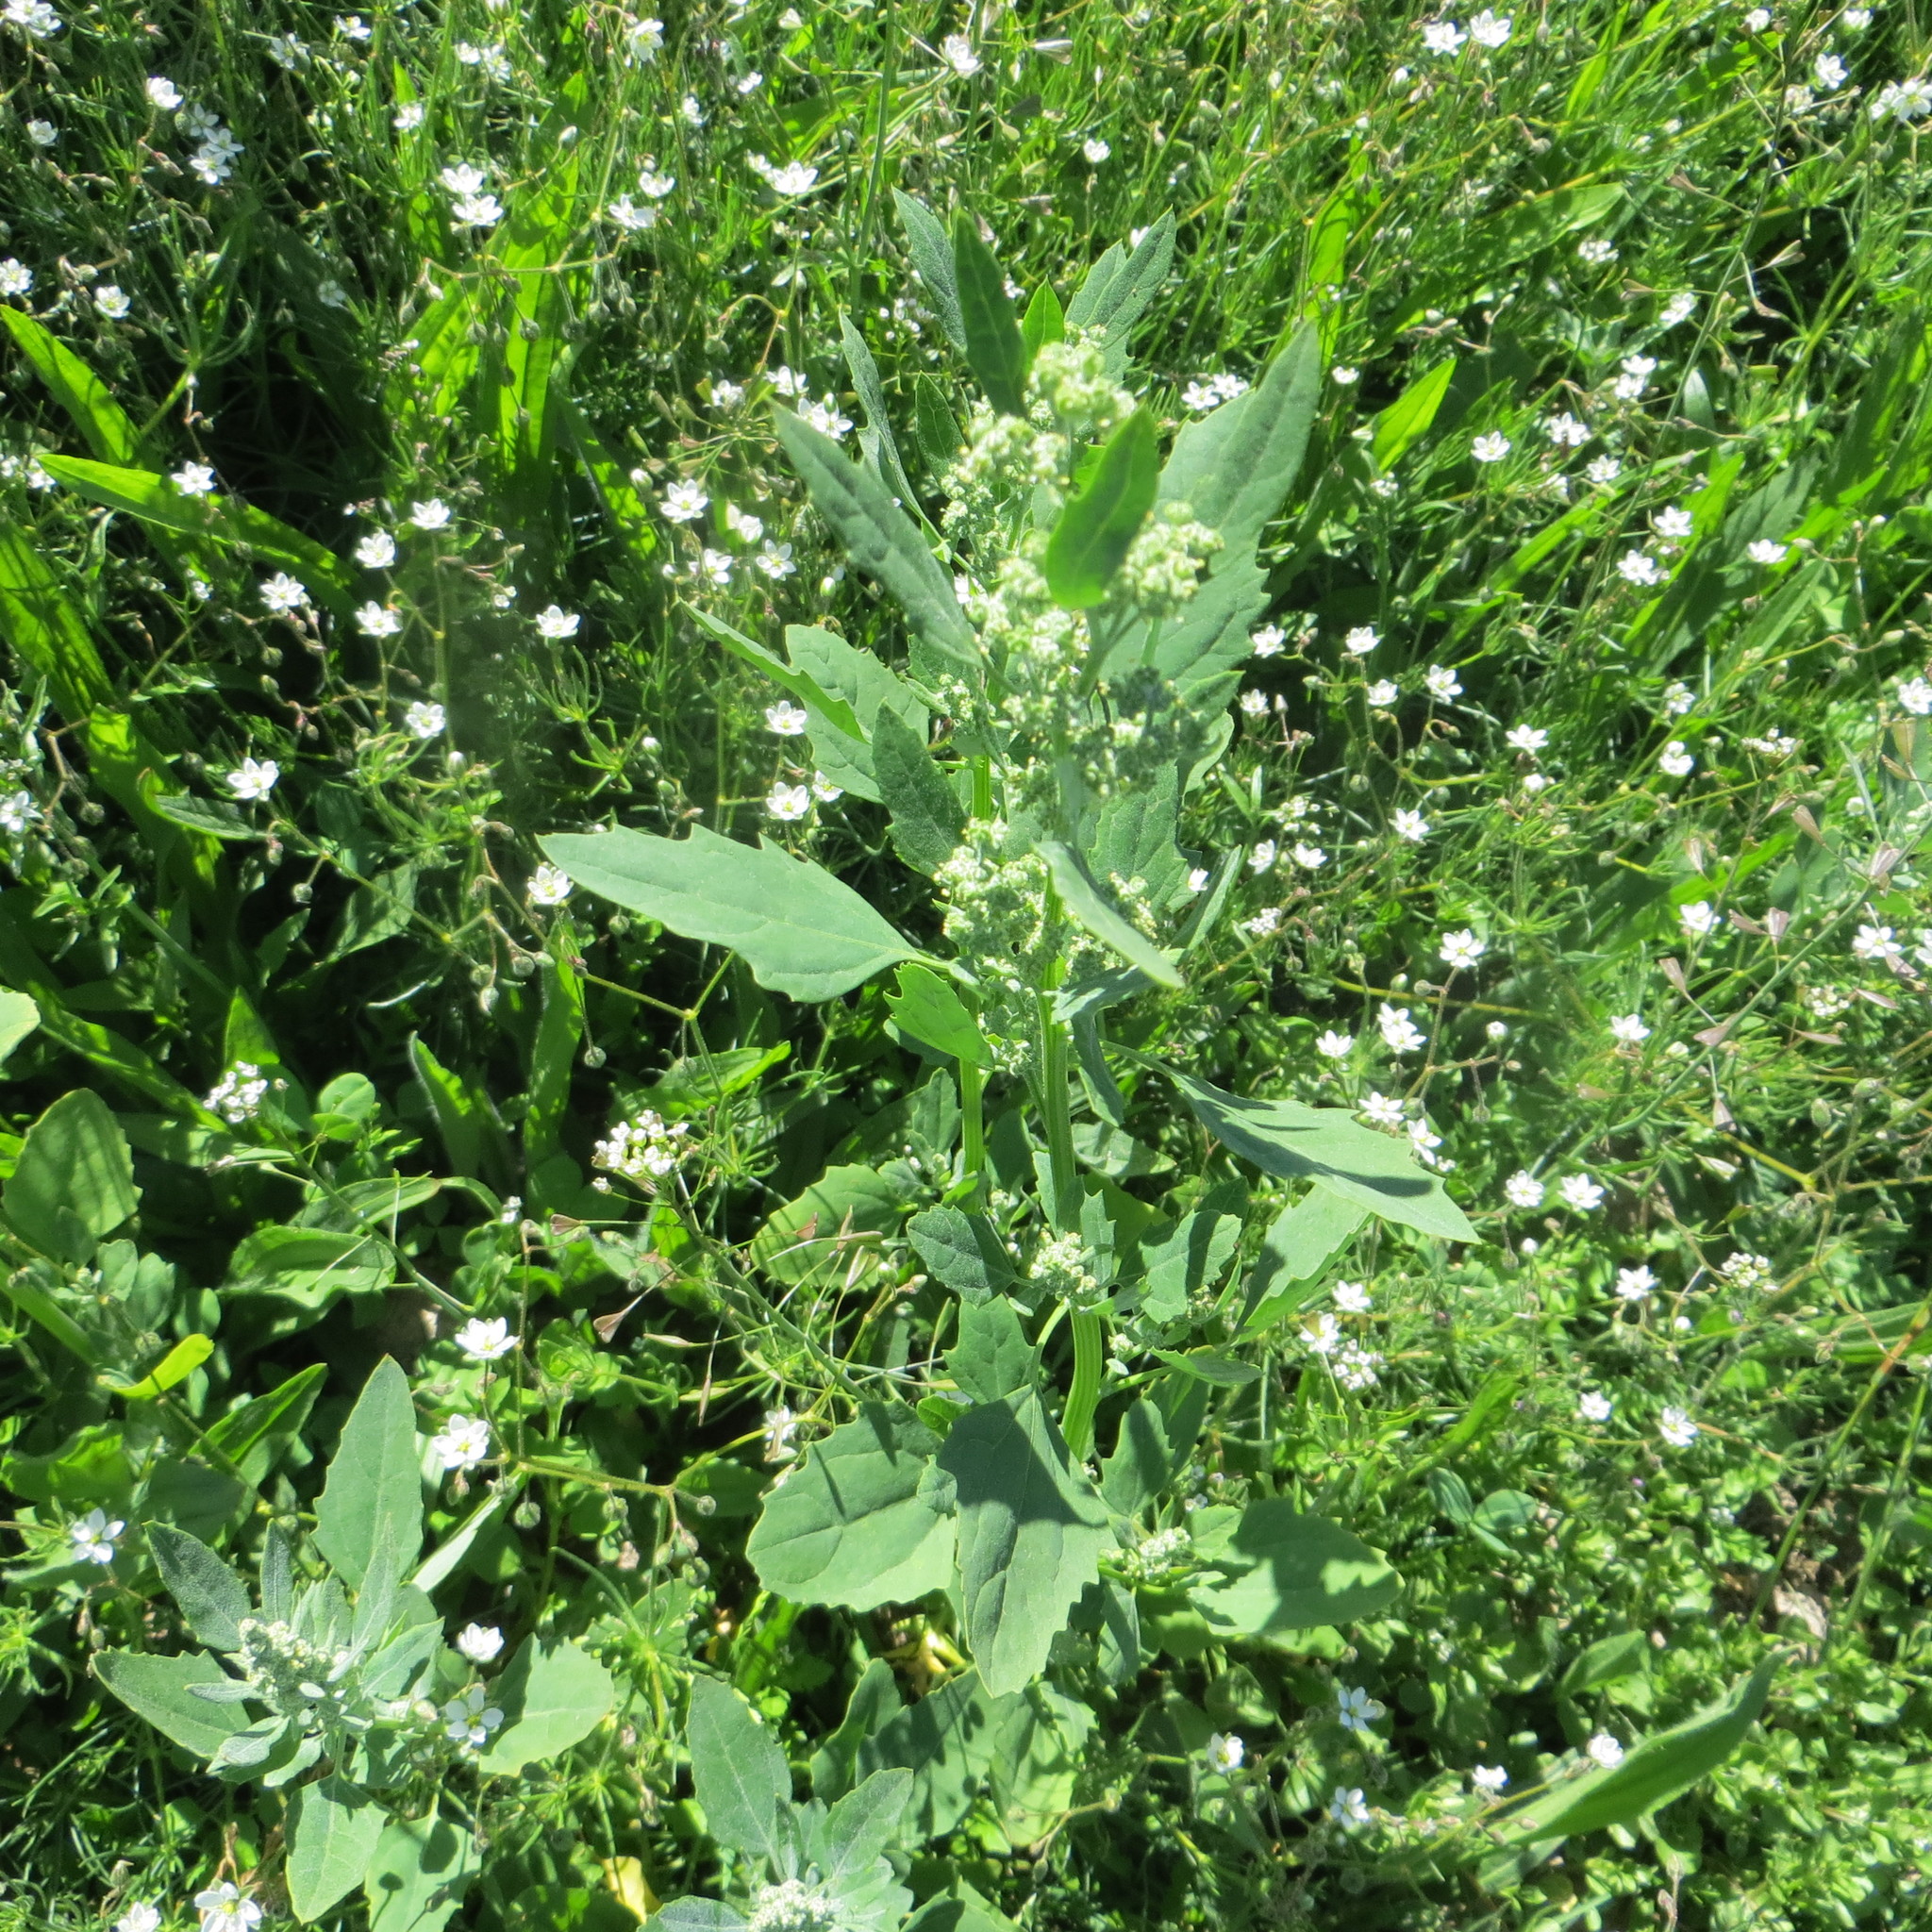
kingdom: Plantae
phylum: Tracheophyta
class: Magnoliopsida
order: Caryophyllales
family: Amaranthaceae
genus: Chenopodium
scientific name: Chenopodium album
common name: Fat-hen
